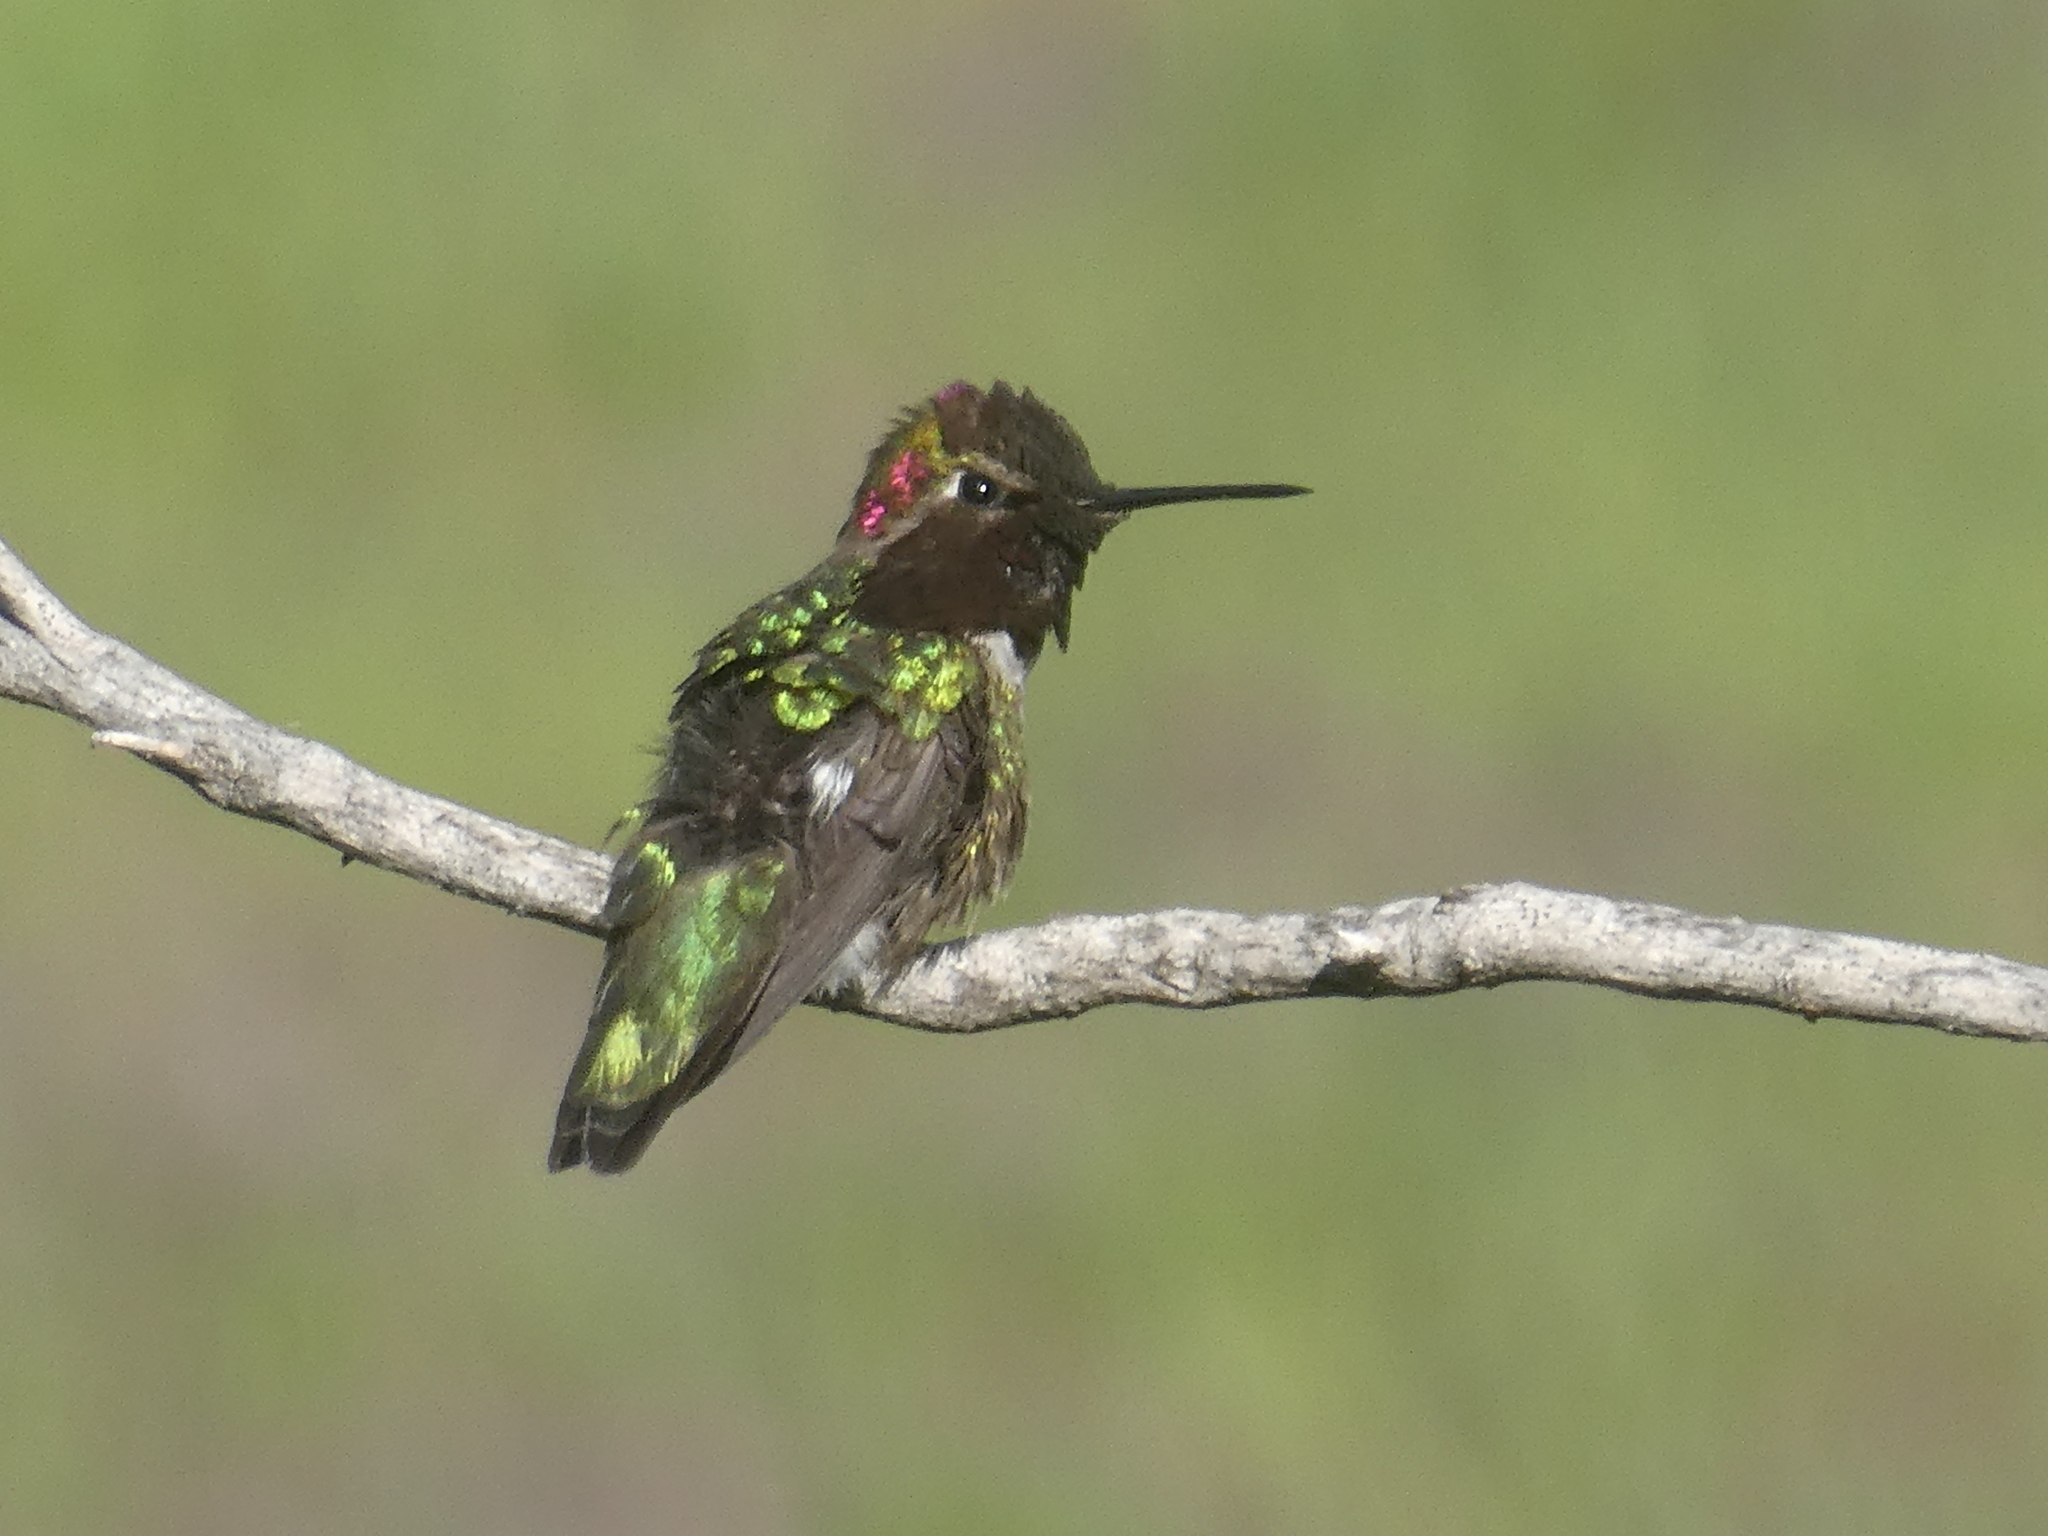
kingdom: Animalia
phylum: Chordata
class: Aves
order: Apodiformes
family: Trochilidae
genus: Calypte
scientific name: Calypte anna
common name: Anna's hummingbird
